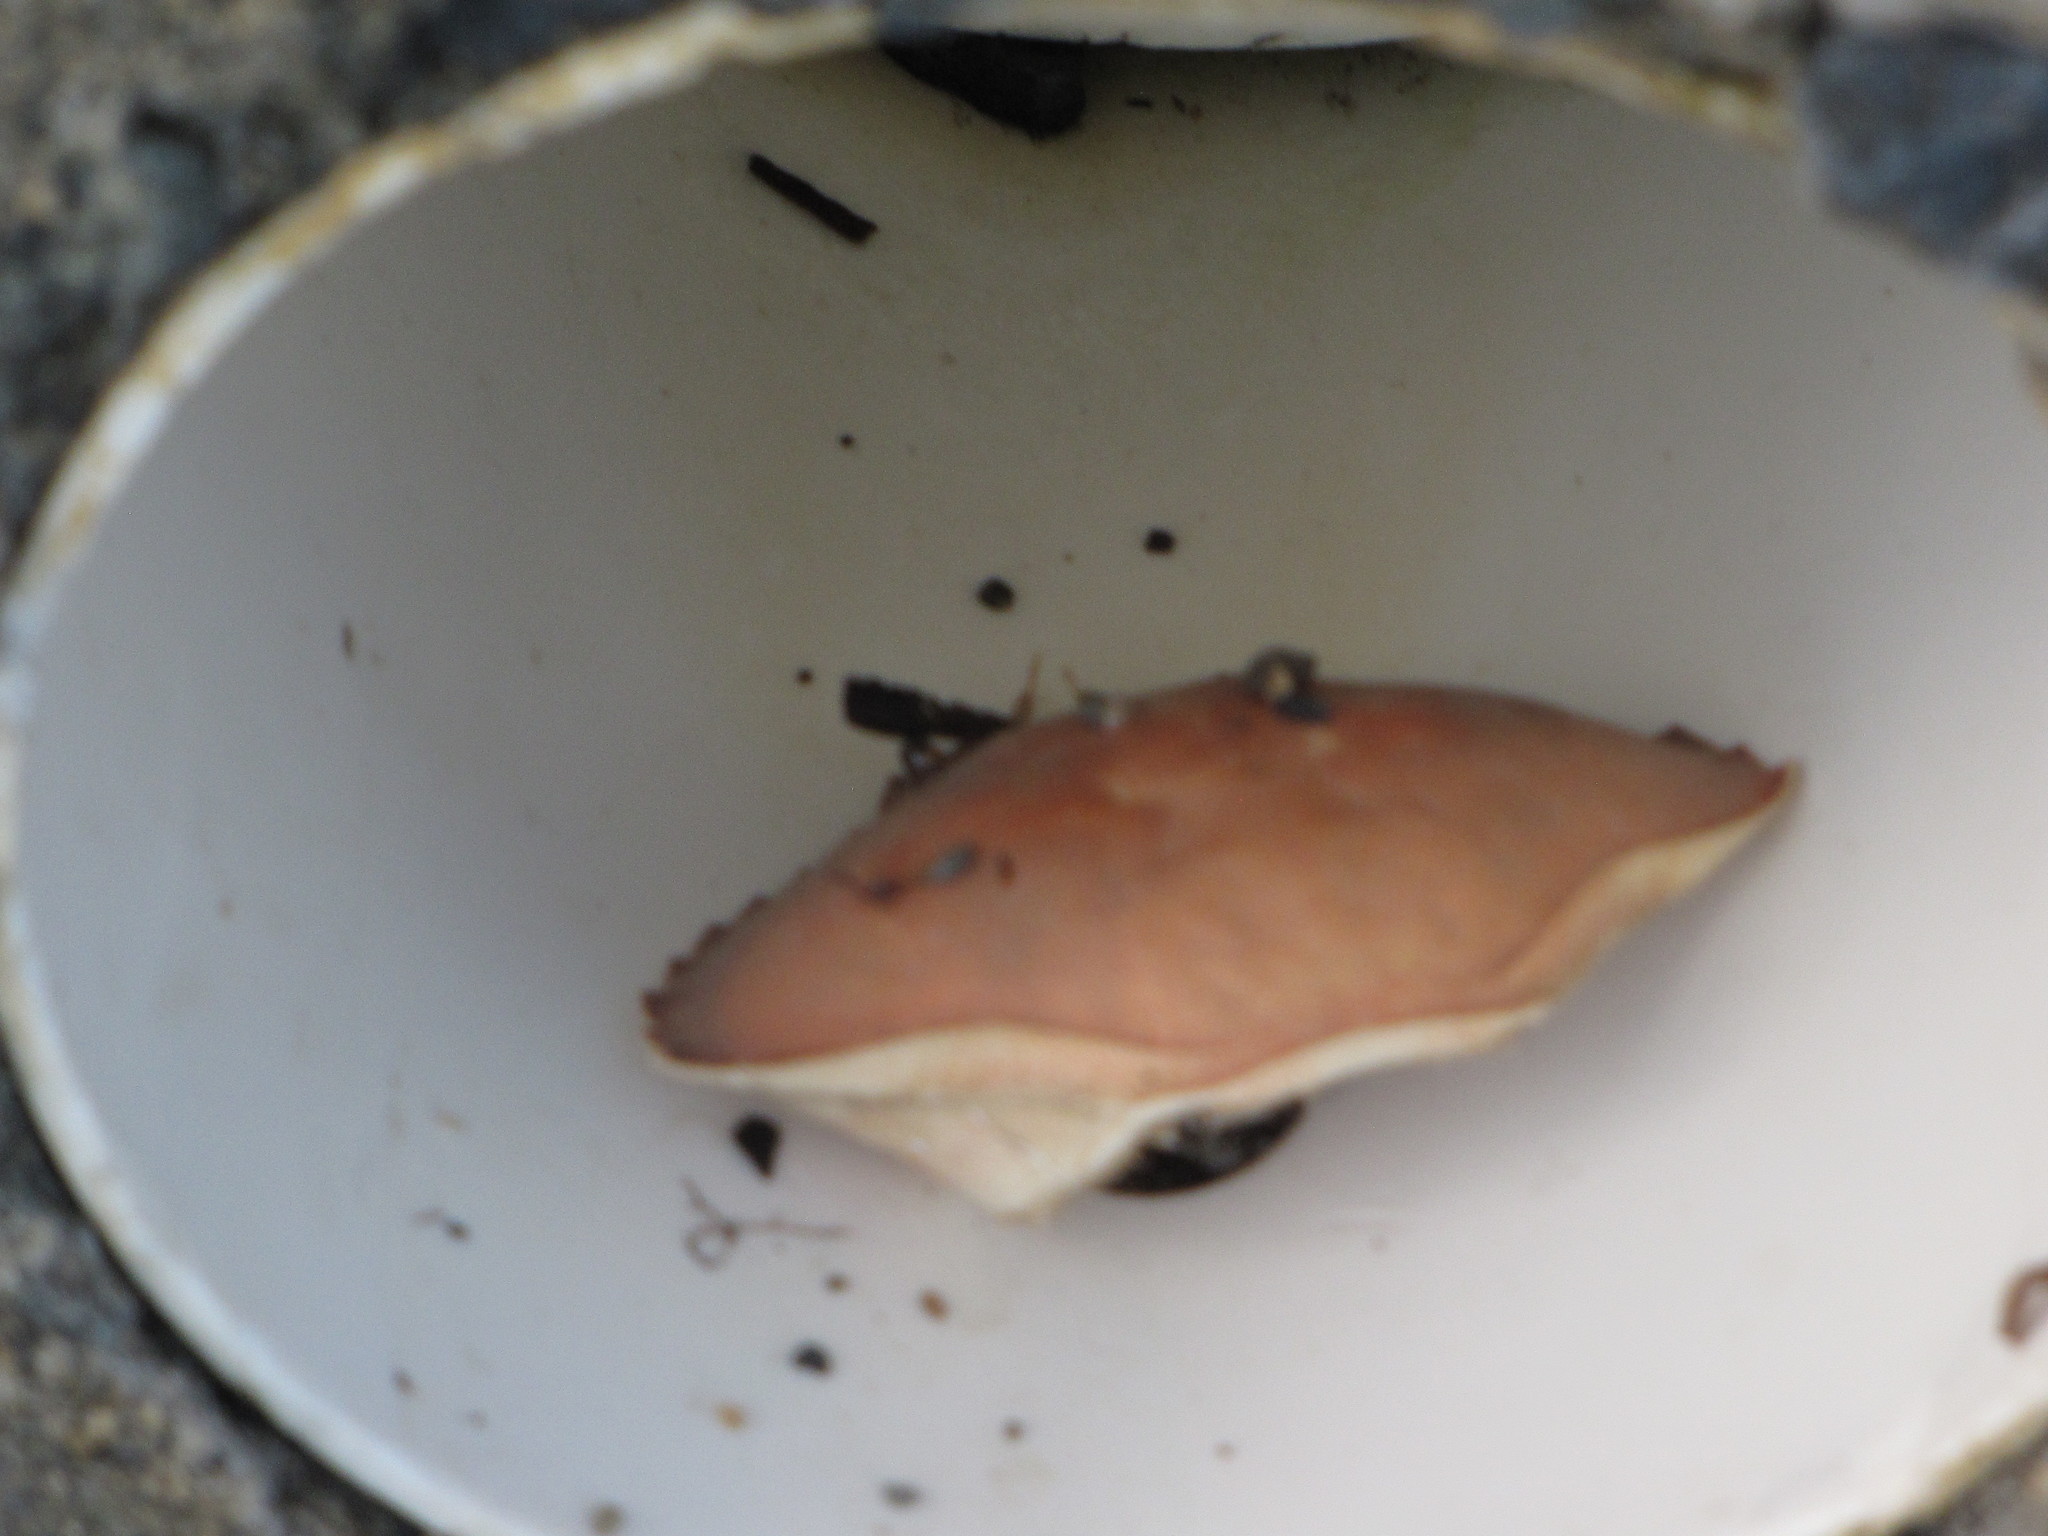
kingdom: Animalia
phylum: Arthropoda
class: Malacostraca
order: Decapoda
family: Cancridae
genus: Metacarcinus
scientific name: Metacarcinus gracilis
